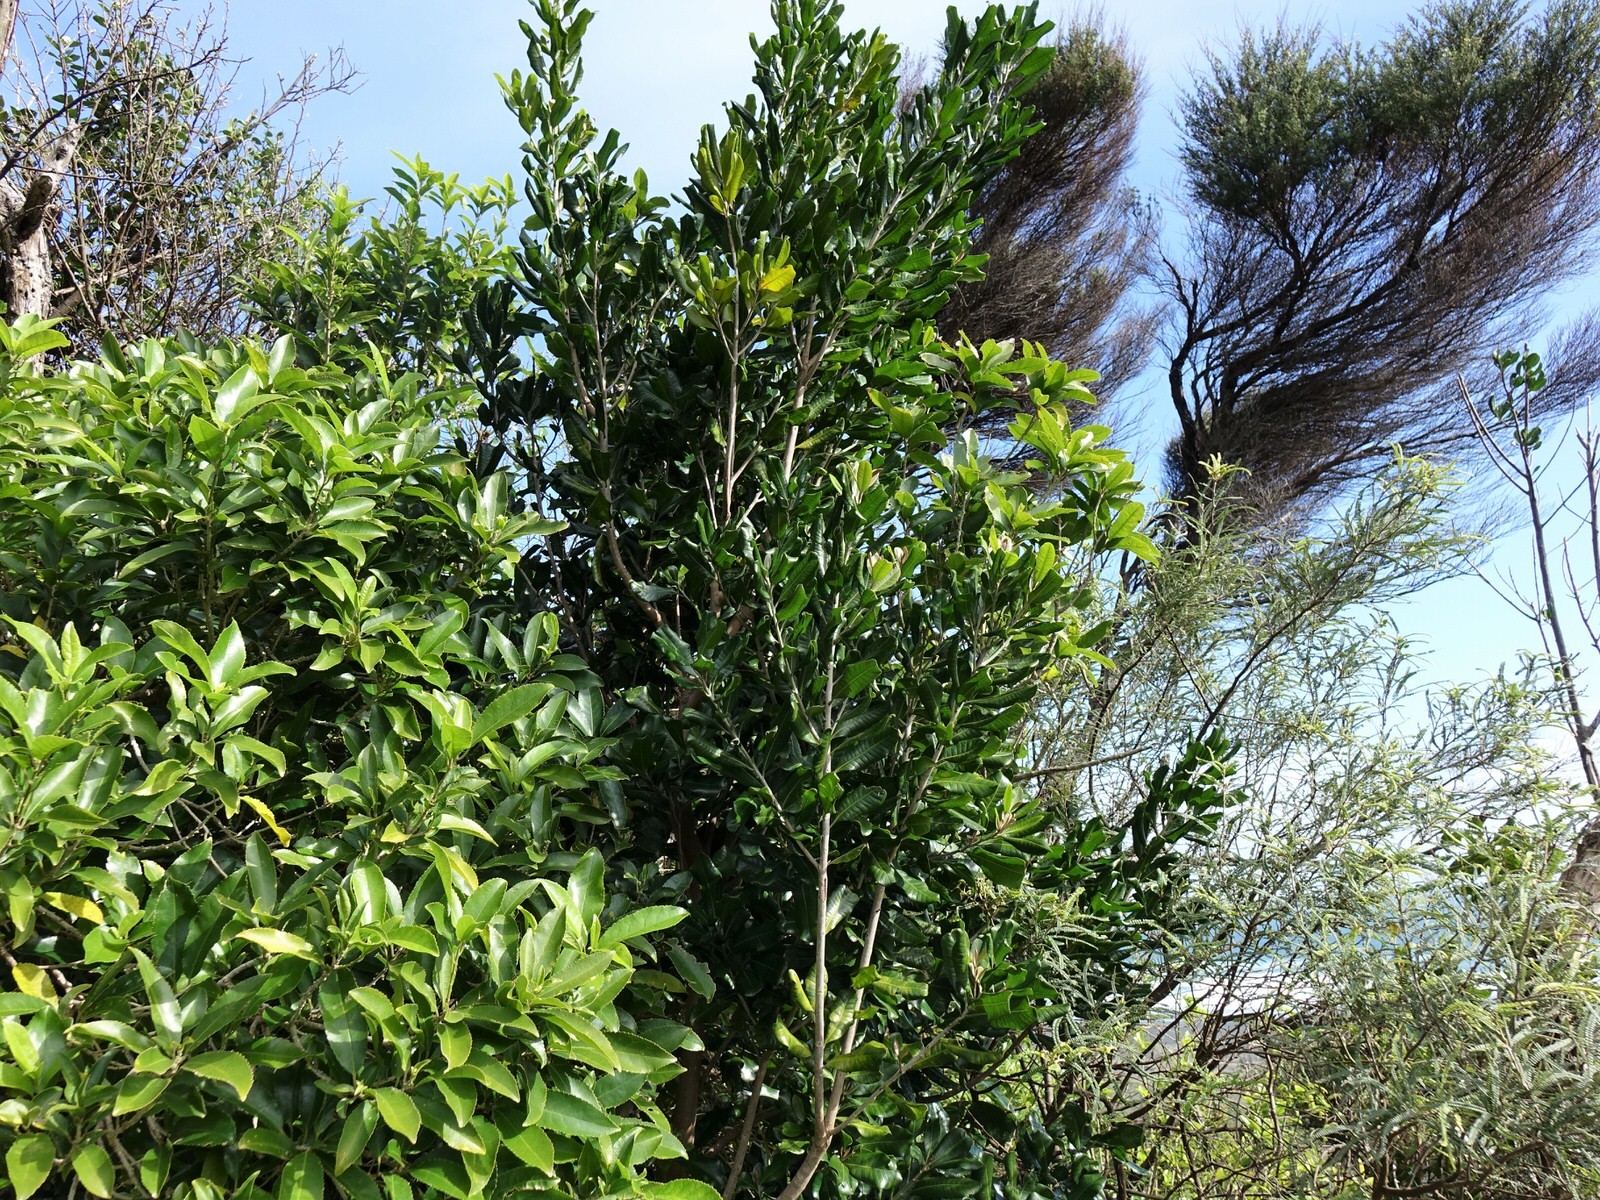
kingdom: Plantae
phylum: Tracheophyta
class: Magnoliopsida
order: Ericales
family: Sapotaceae
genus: Planchonella
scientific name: Planchonella costata
